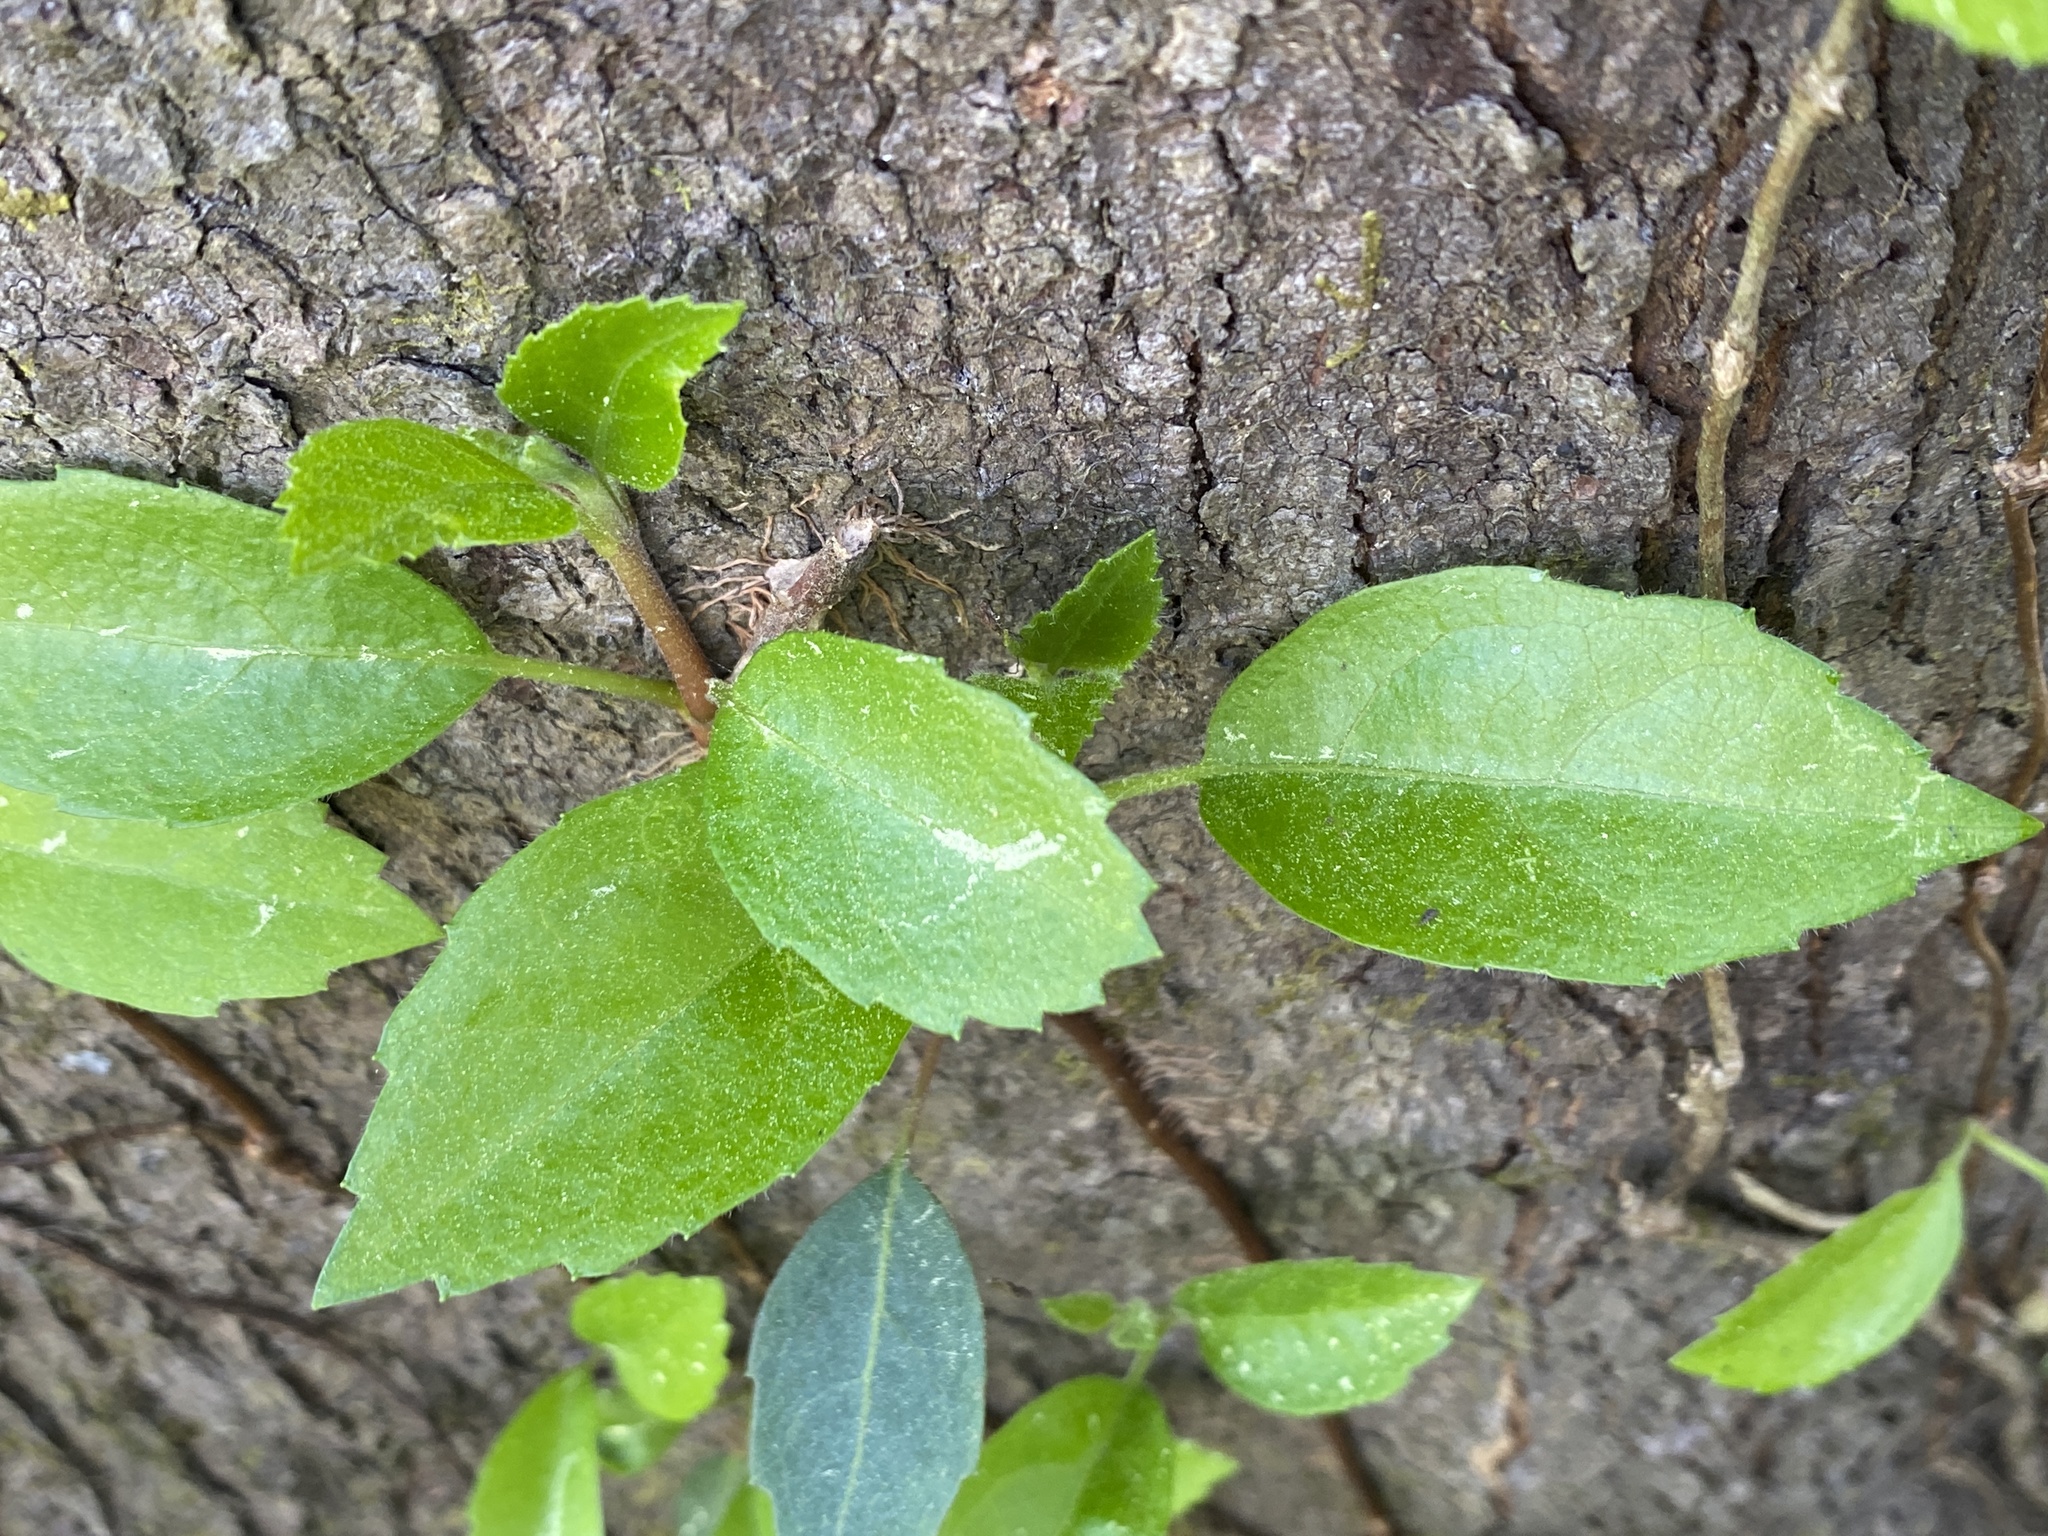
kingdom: Plantae
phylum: Tracheophyta
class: Magnoliopsida
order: Cornales
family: Hydrangeaceae
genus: Hydrangea
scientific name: Hydrangea barbara
